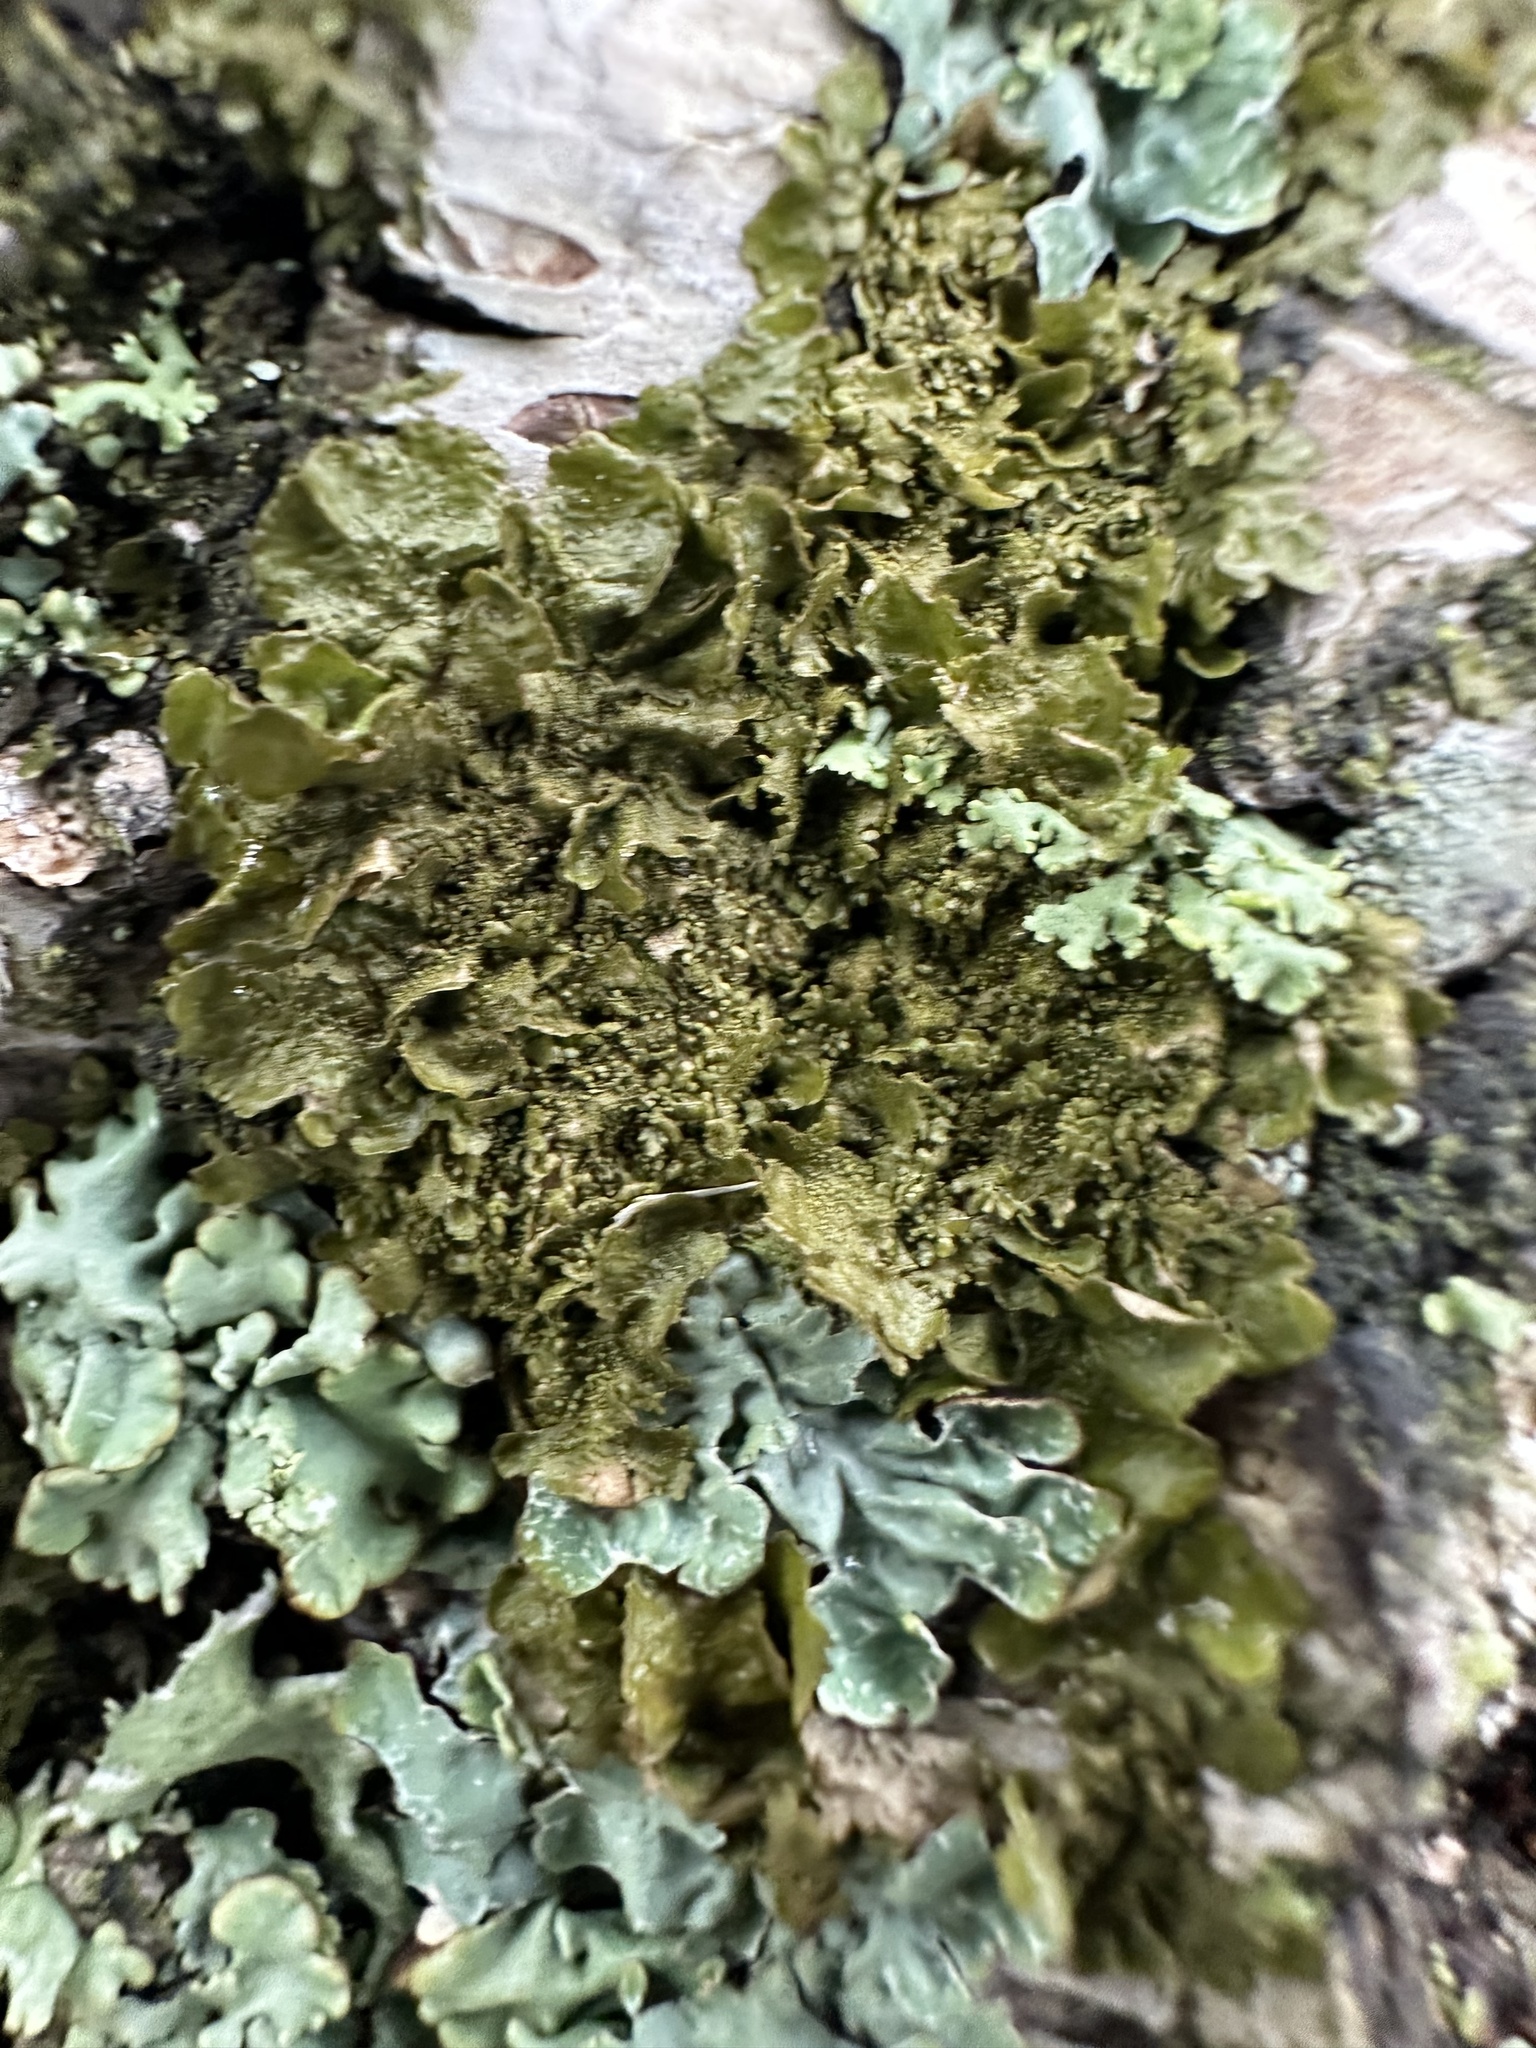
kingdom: Fungi
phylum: Ascomycota
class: Lecanoromycetes
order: Lecanorales
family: Parmeliaceae
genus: Melanohalea
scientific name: Melanohalea exasperatula
